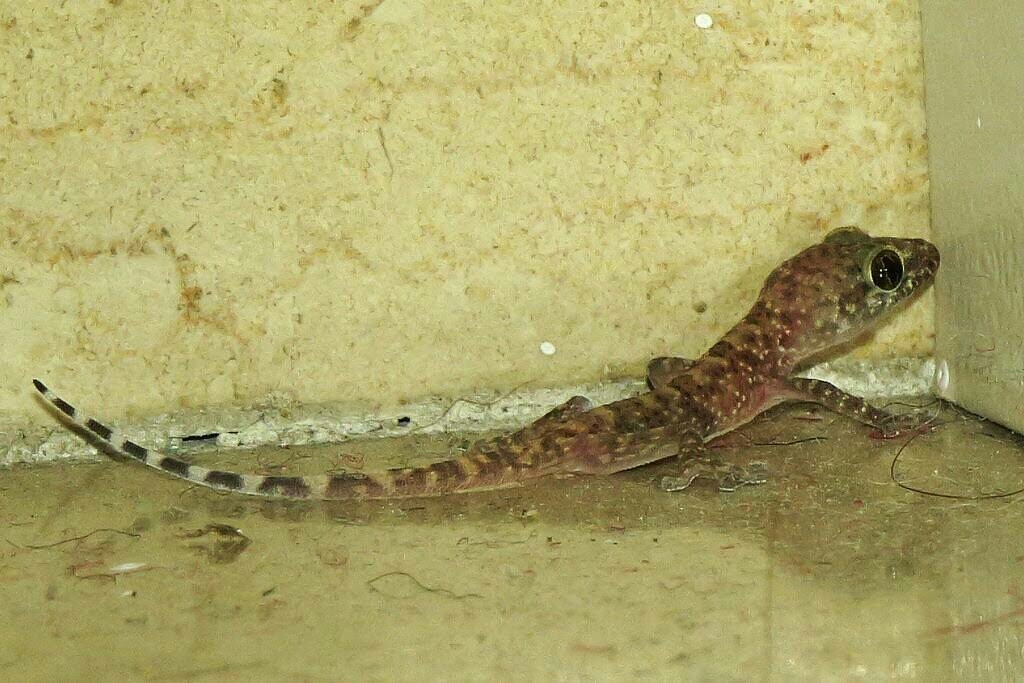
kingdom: Animalia
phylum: Chordata
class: Squamata
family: Gekkonidae
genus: Hemidactylus
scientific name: Hemidactylus turcicus
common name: Turkish gecko
